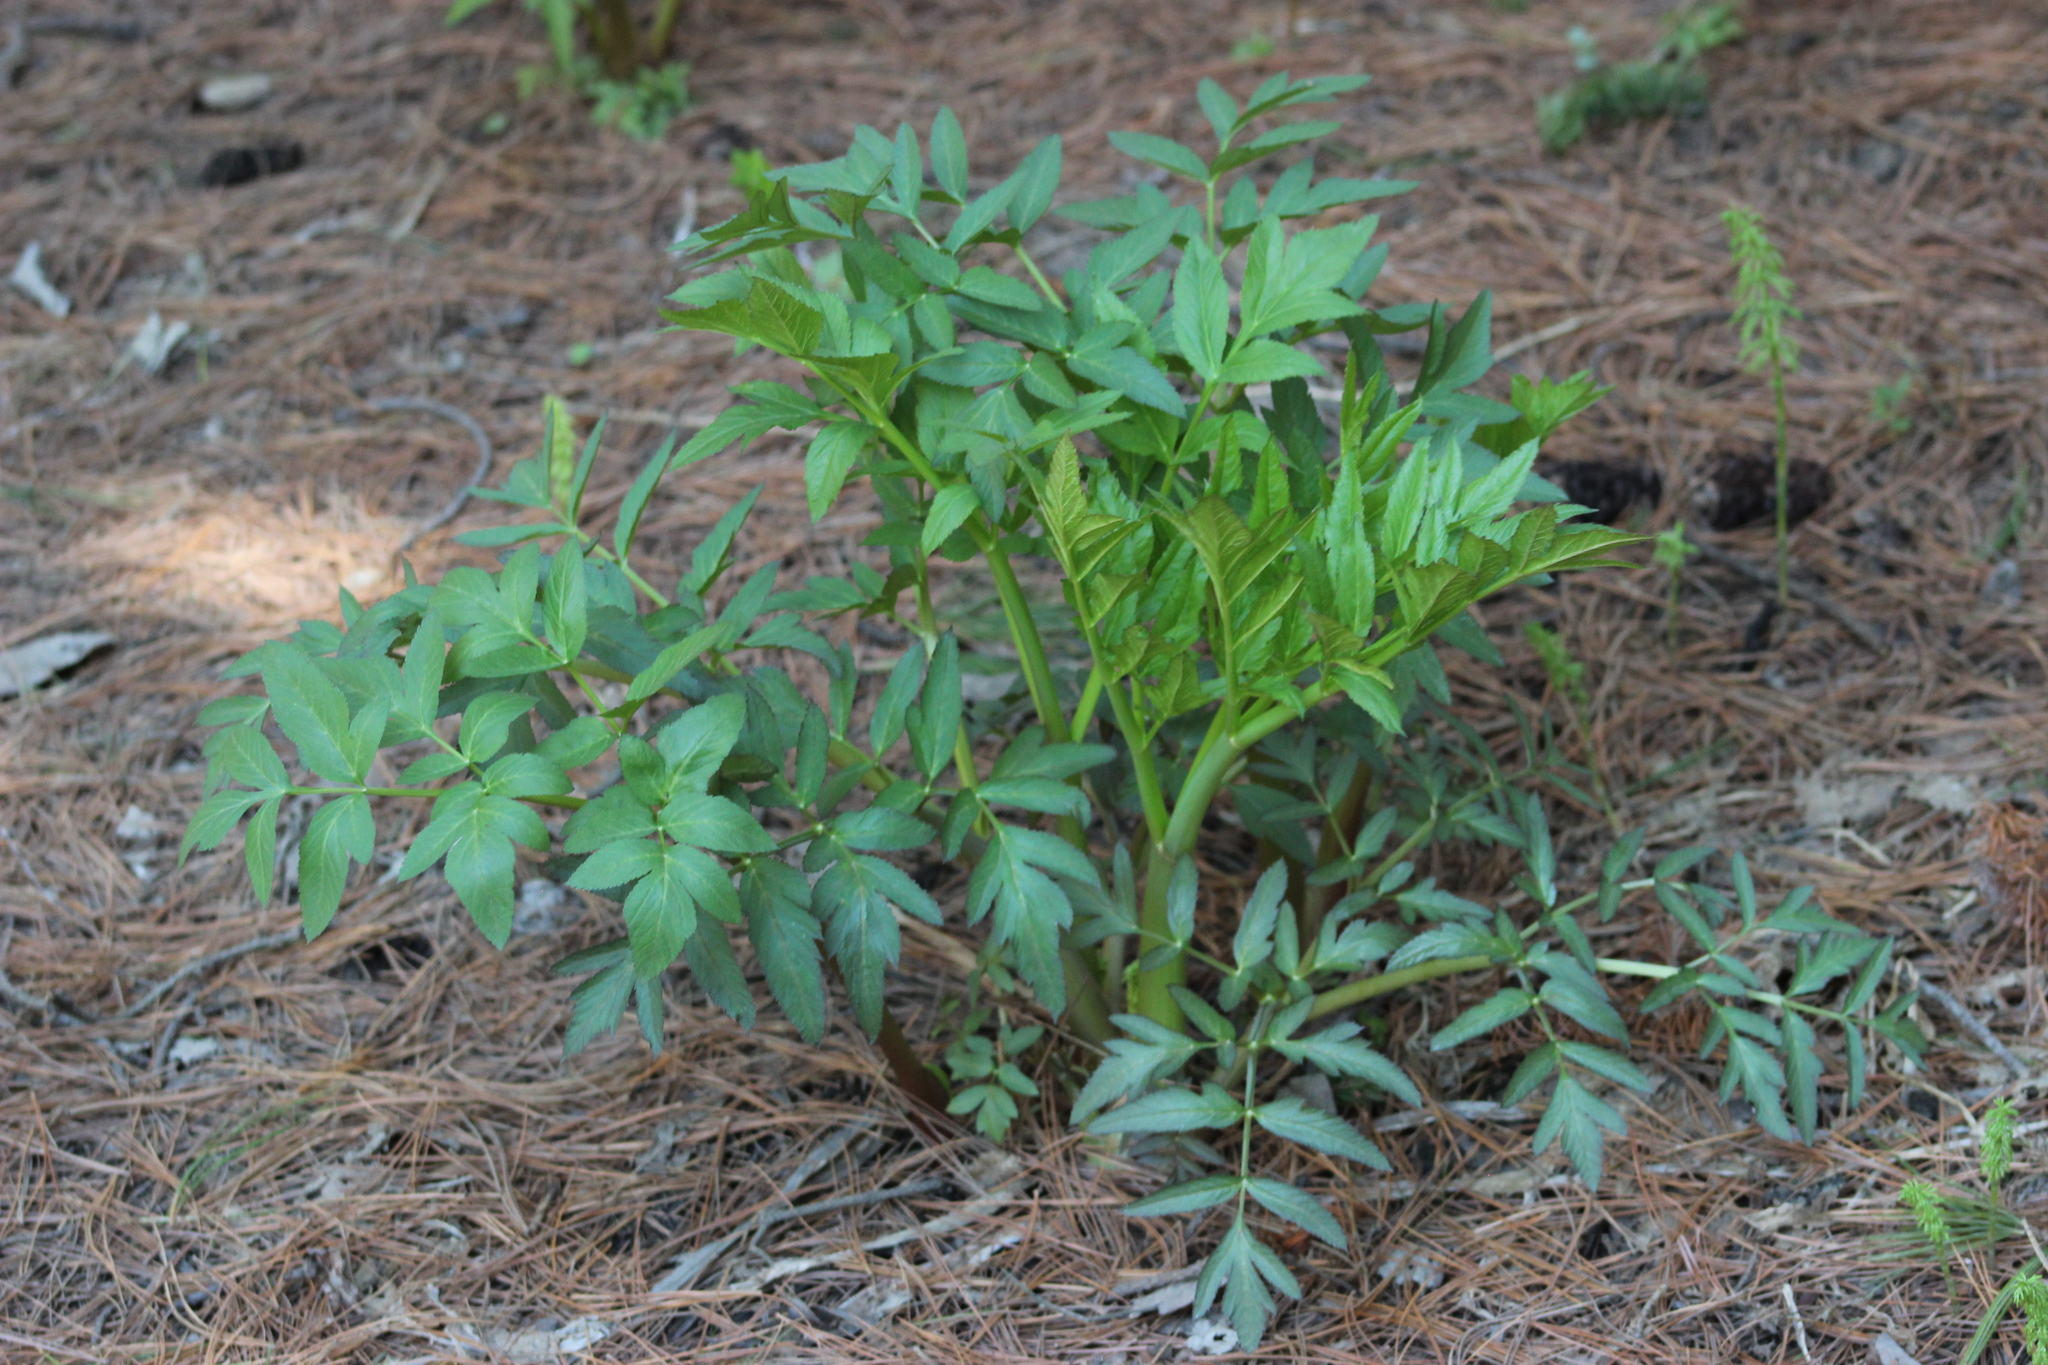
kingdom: Plantae
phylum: Tracheophyta
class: Magnoliopsida
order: Apiales
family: Apiaceae
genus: Angelica
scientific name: Angelica sylvestris
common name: Wild angelica
